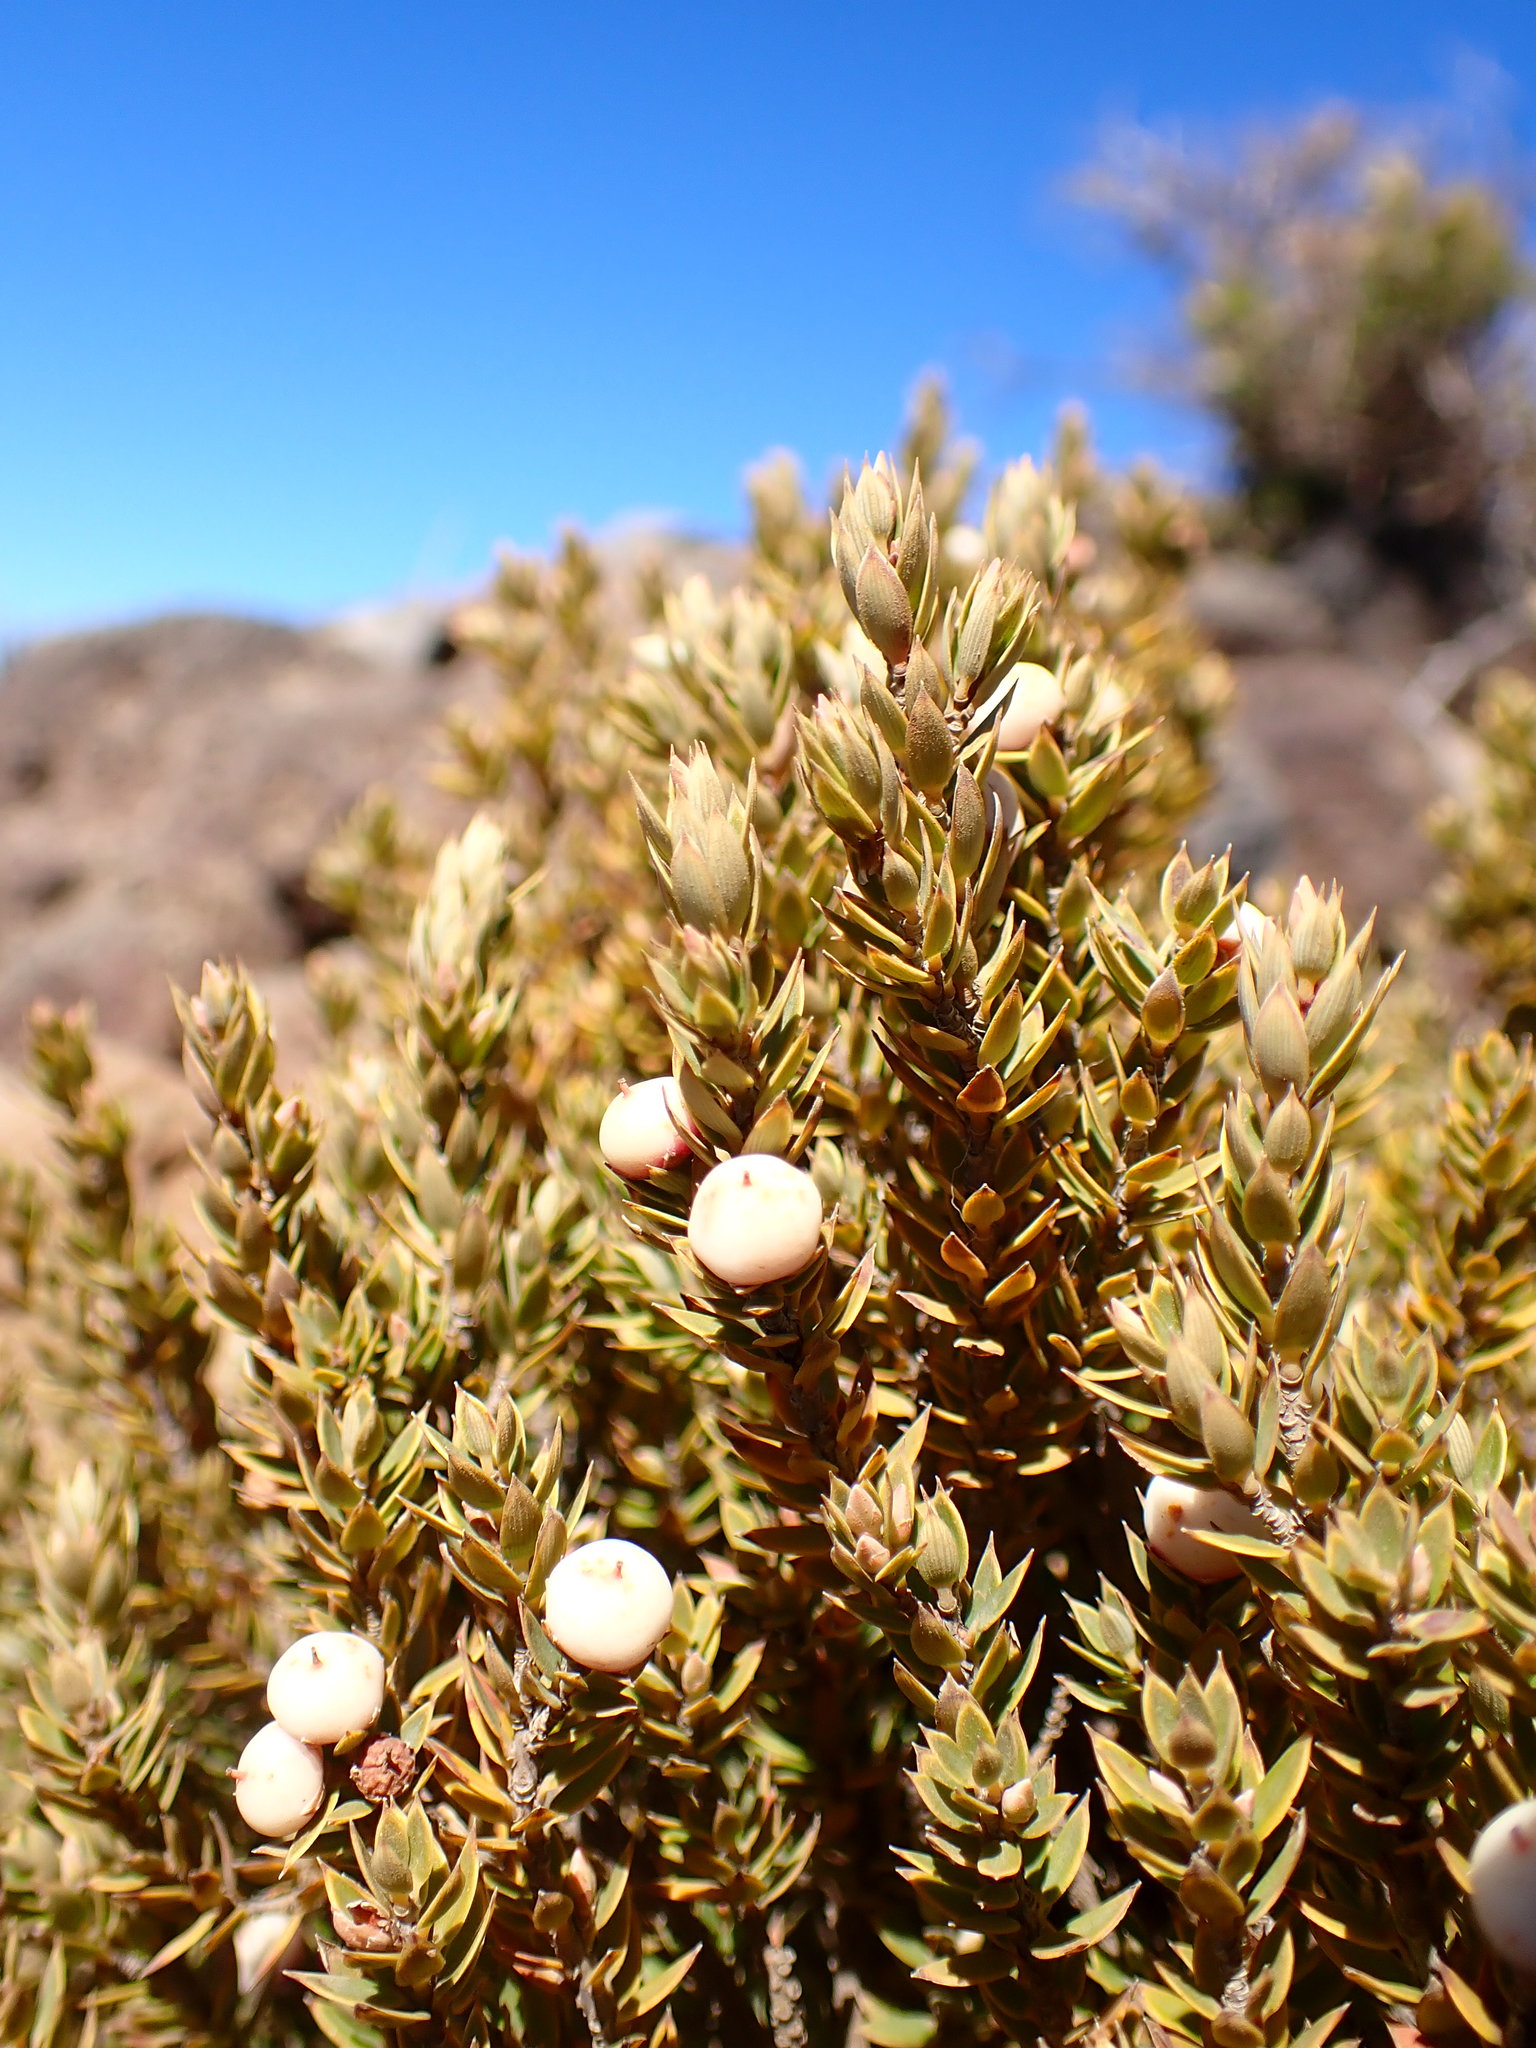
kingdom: Plantae
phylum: Tracheophyta
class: Magnoliopsida
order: Ericales
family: Ericaceae
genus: Leptecophylla
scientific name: Leptecophylla tameiameiae
